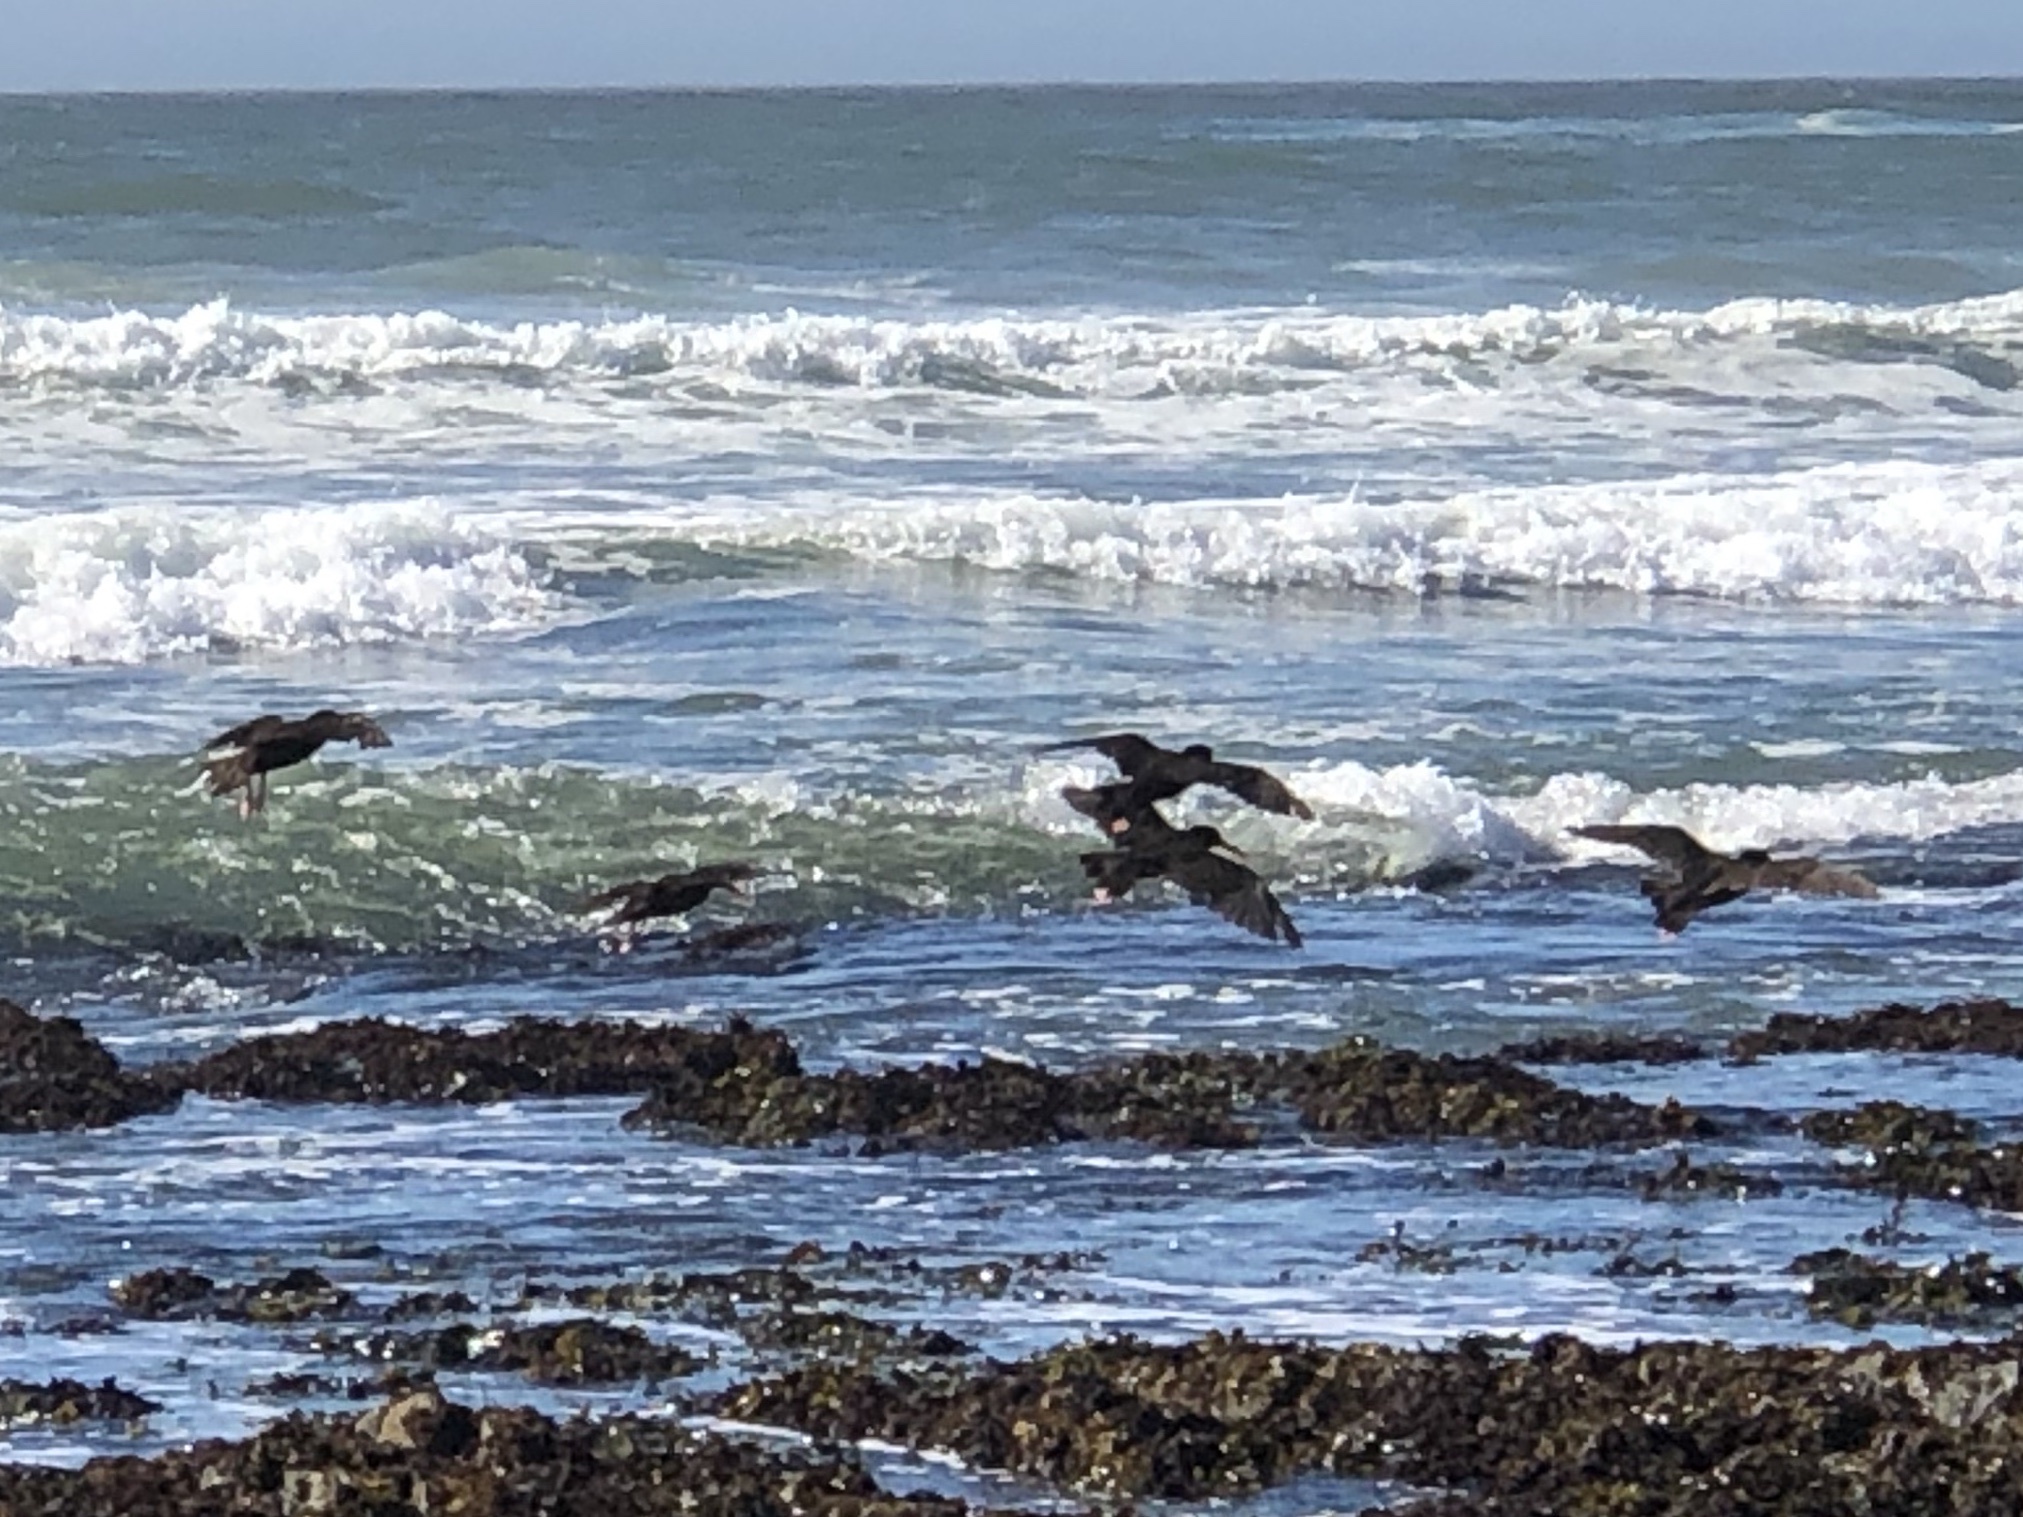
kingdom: Animalia
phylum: Chordata
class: Aves
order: Charadriiformes
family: Haematopodidae
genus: Haematopus
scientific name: Haematopus bachmani
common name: Black oystercatcher
